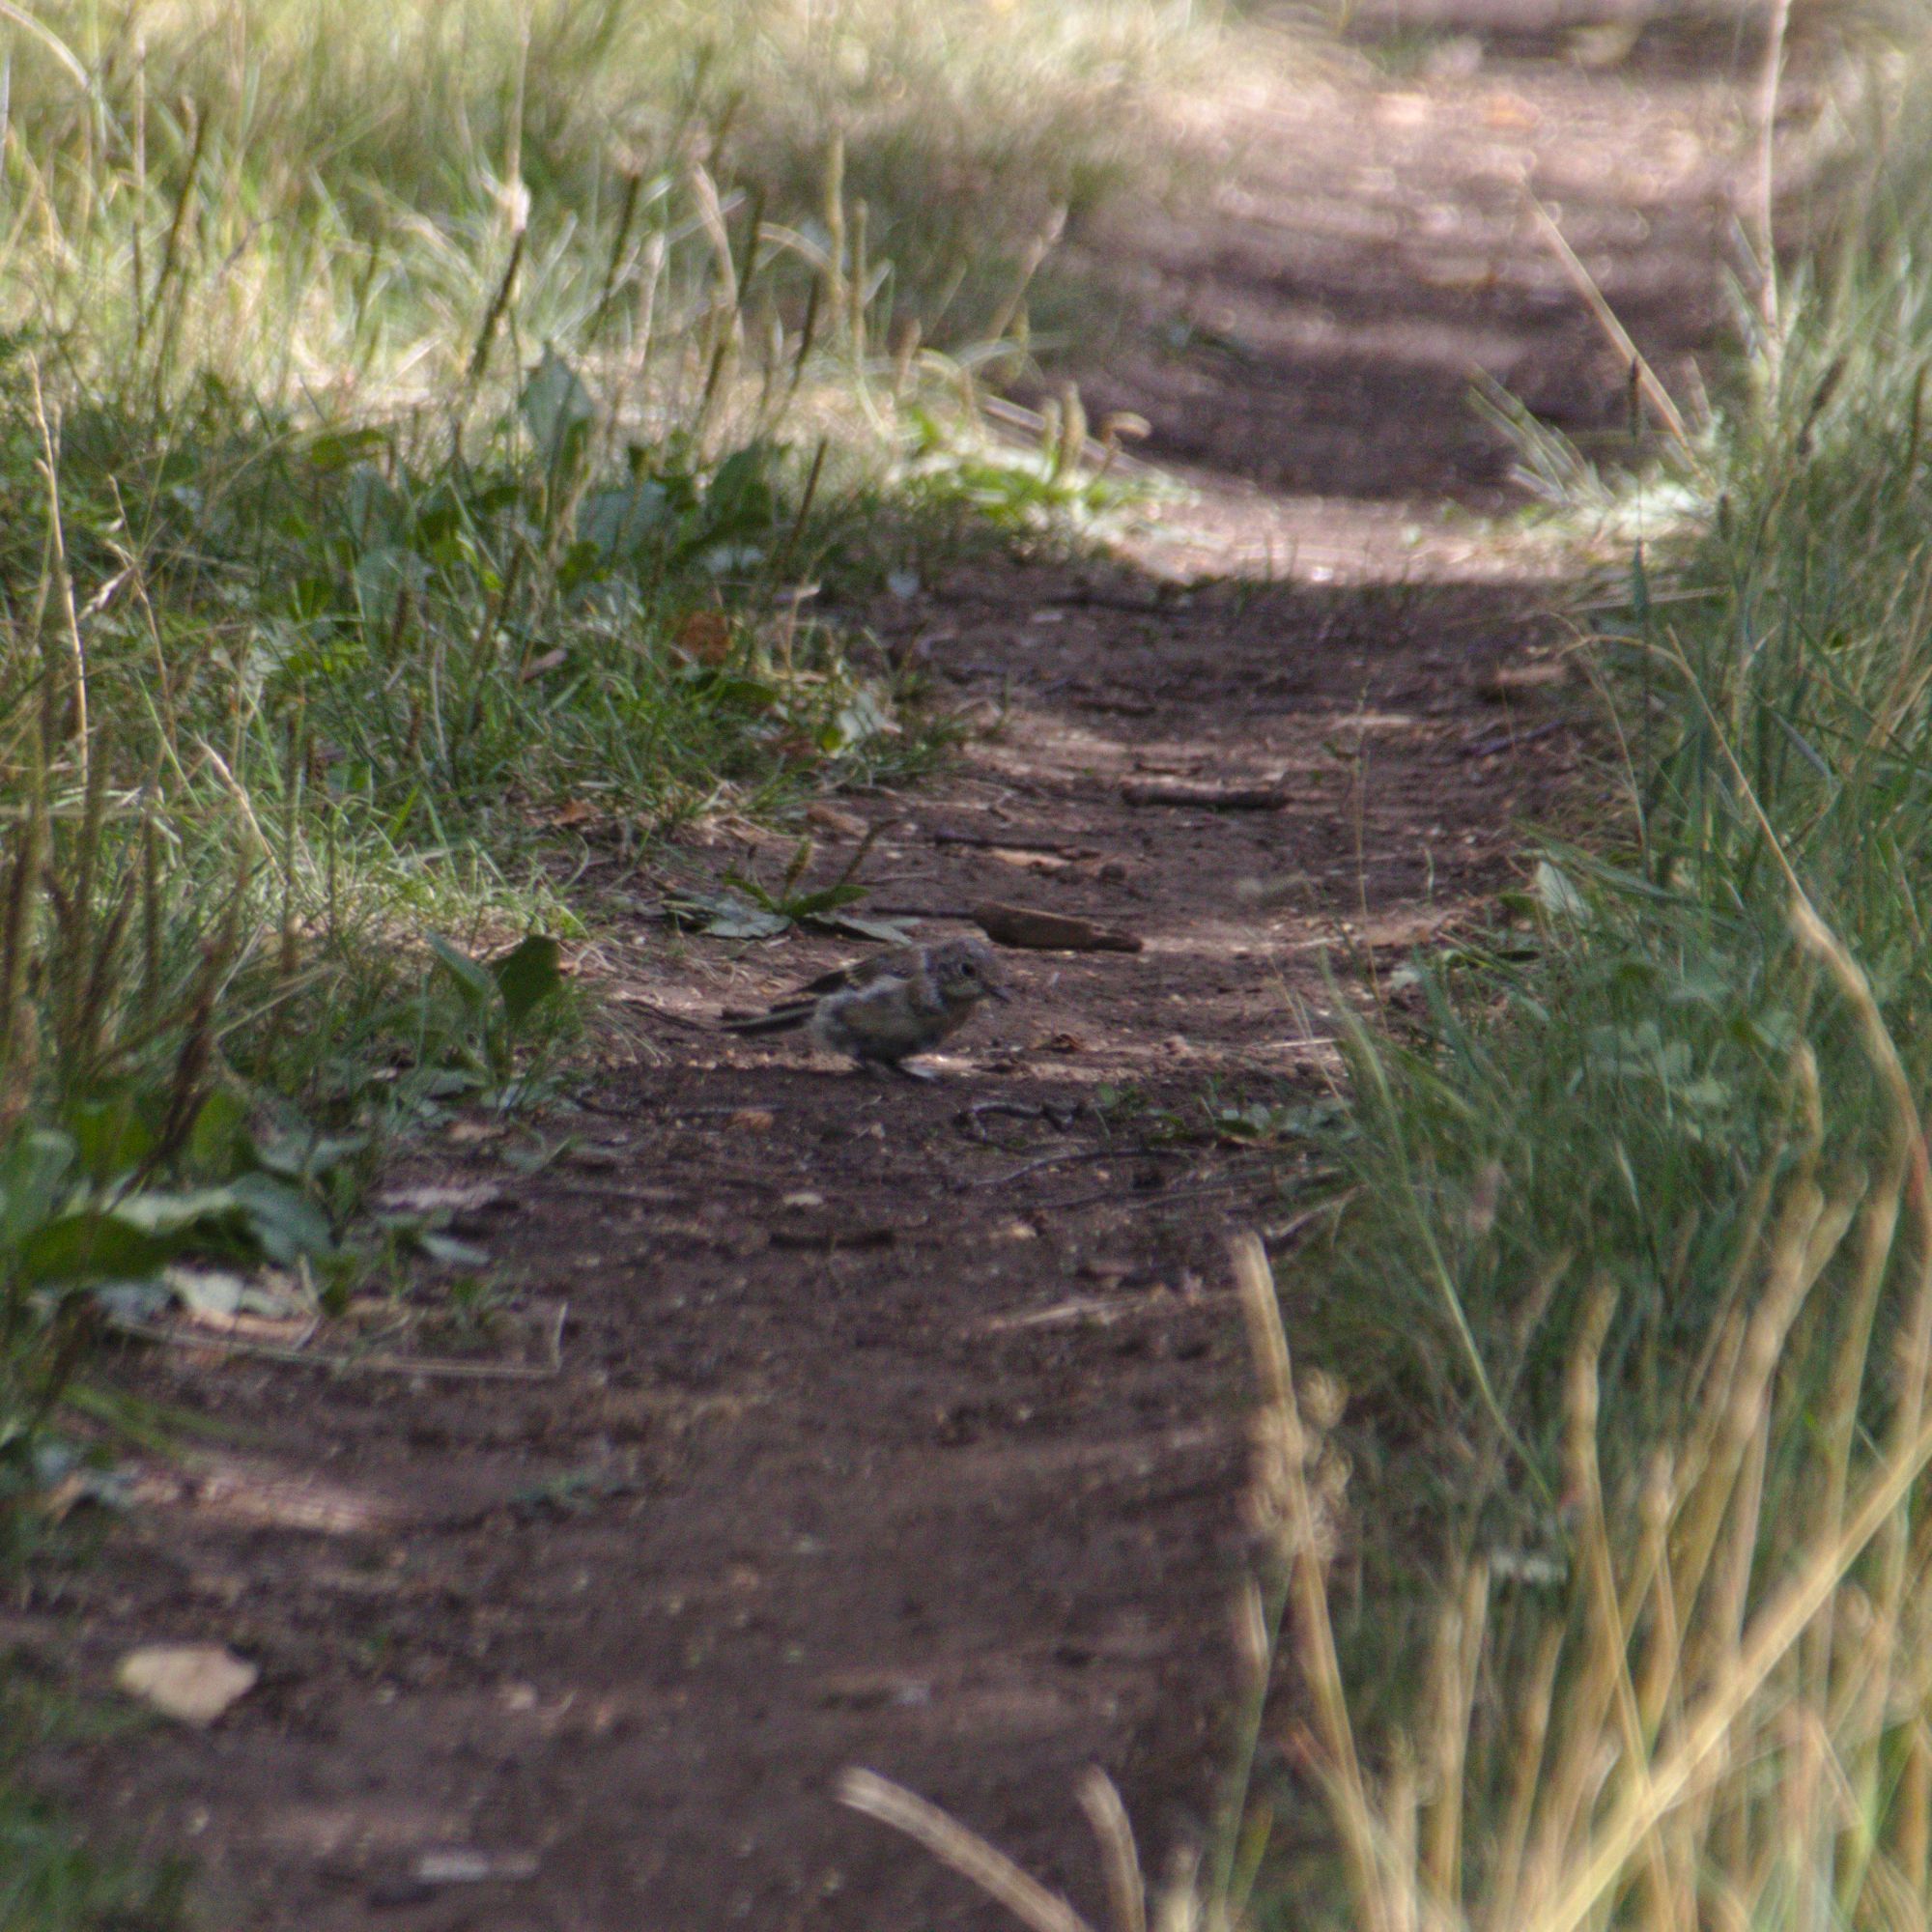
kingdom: Animalia
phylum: Chordata
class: Aves
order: Passeriformes
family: Muscicapidae
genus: Ficedula
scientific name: Ficedula hypoleuca
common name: European pied flycatcher
